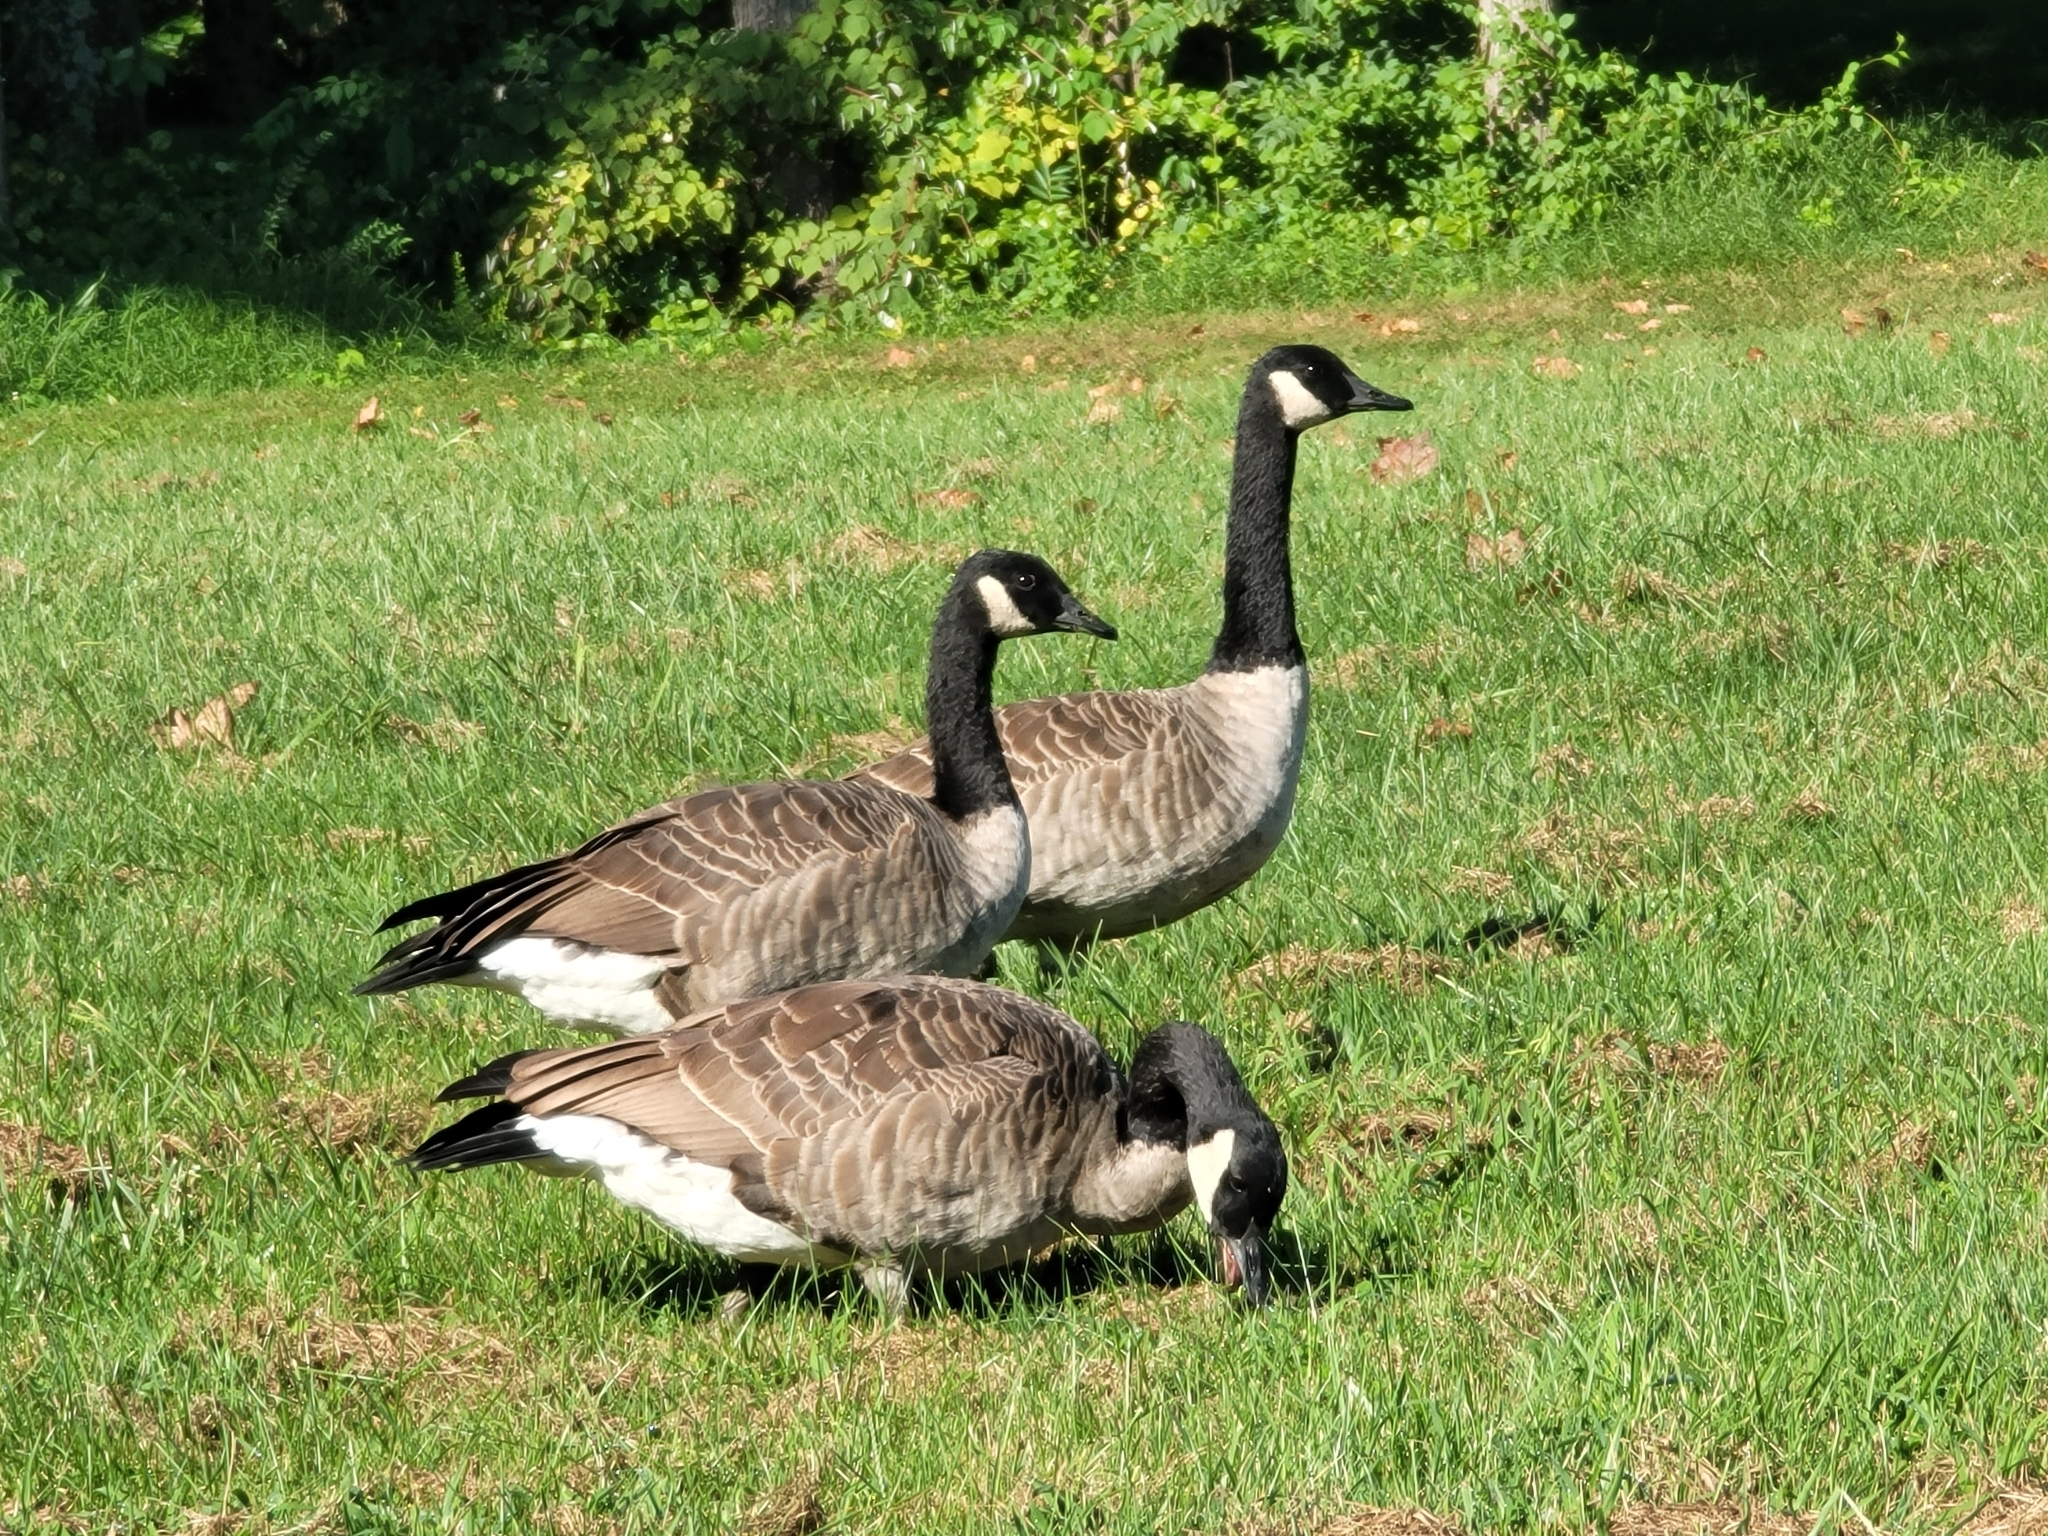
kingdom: Animalia
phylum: Chordata
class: Aves
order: Anseriformes
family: Anatidae
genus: Branta
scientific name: Branta canadensis
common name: Canada goose
